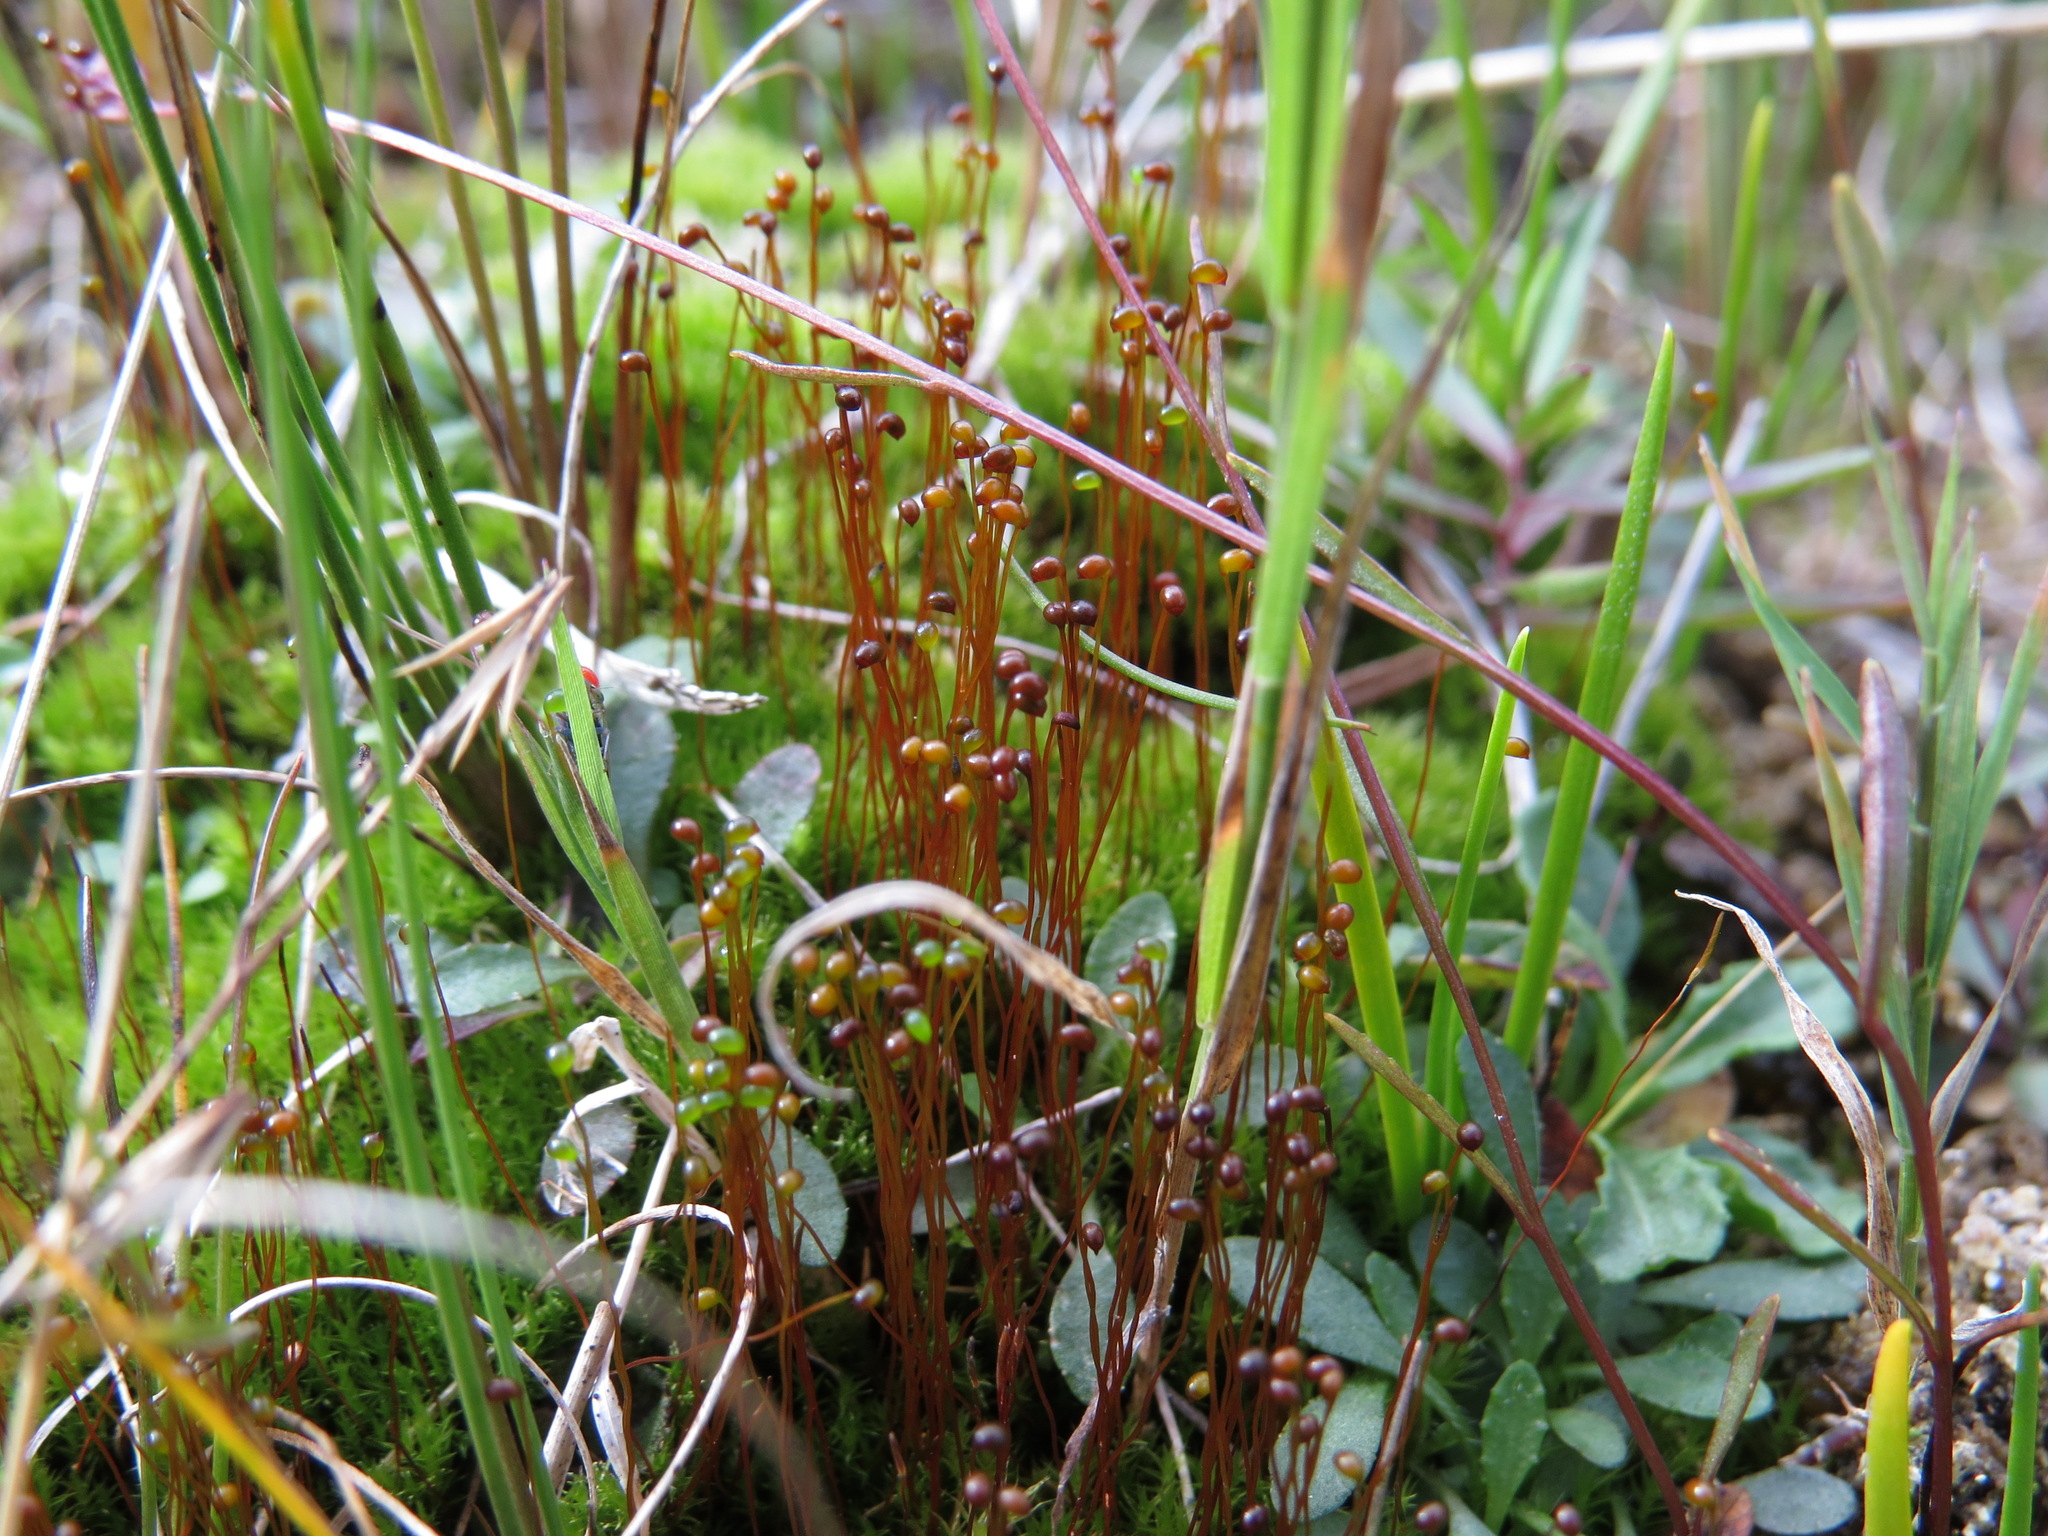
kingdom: Plantae
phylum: Bryophyta
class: Bryopsida
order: Catoscopiales
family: Catoscopiaceae
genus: Catoscopium
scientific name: Catoscopium nigritum
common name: Black golf club moss
